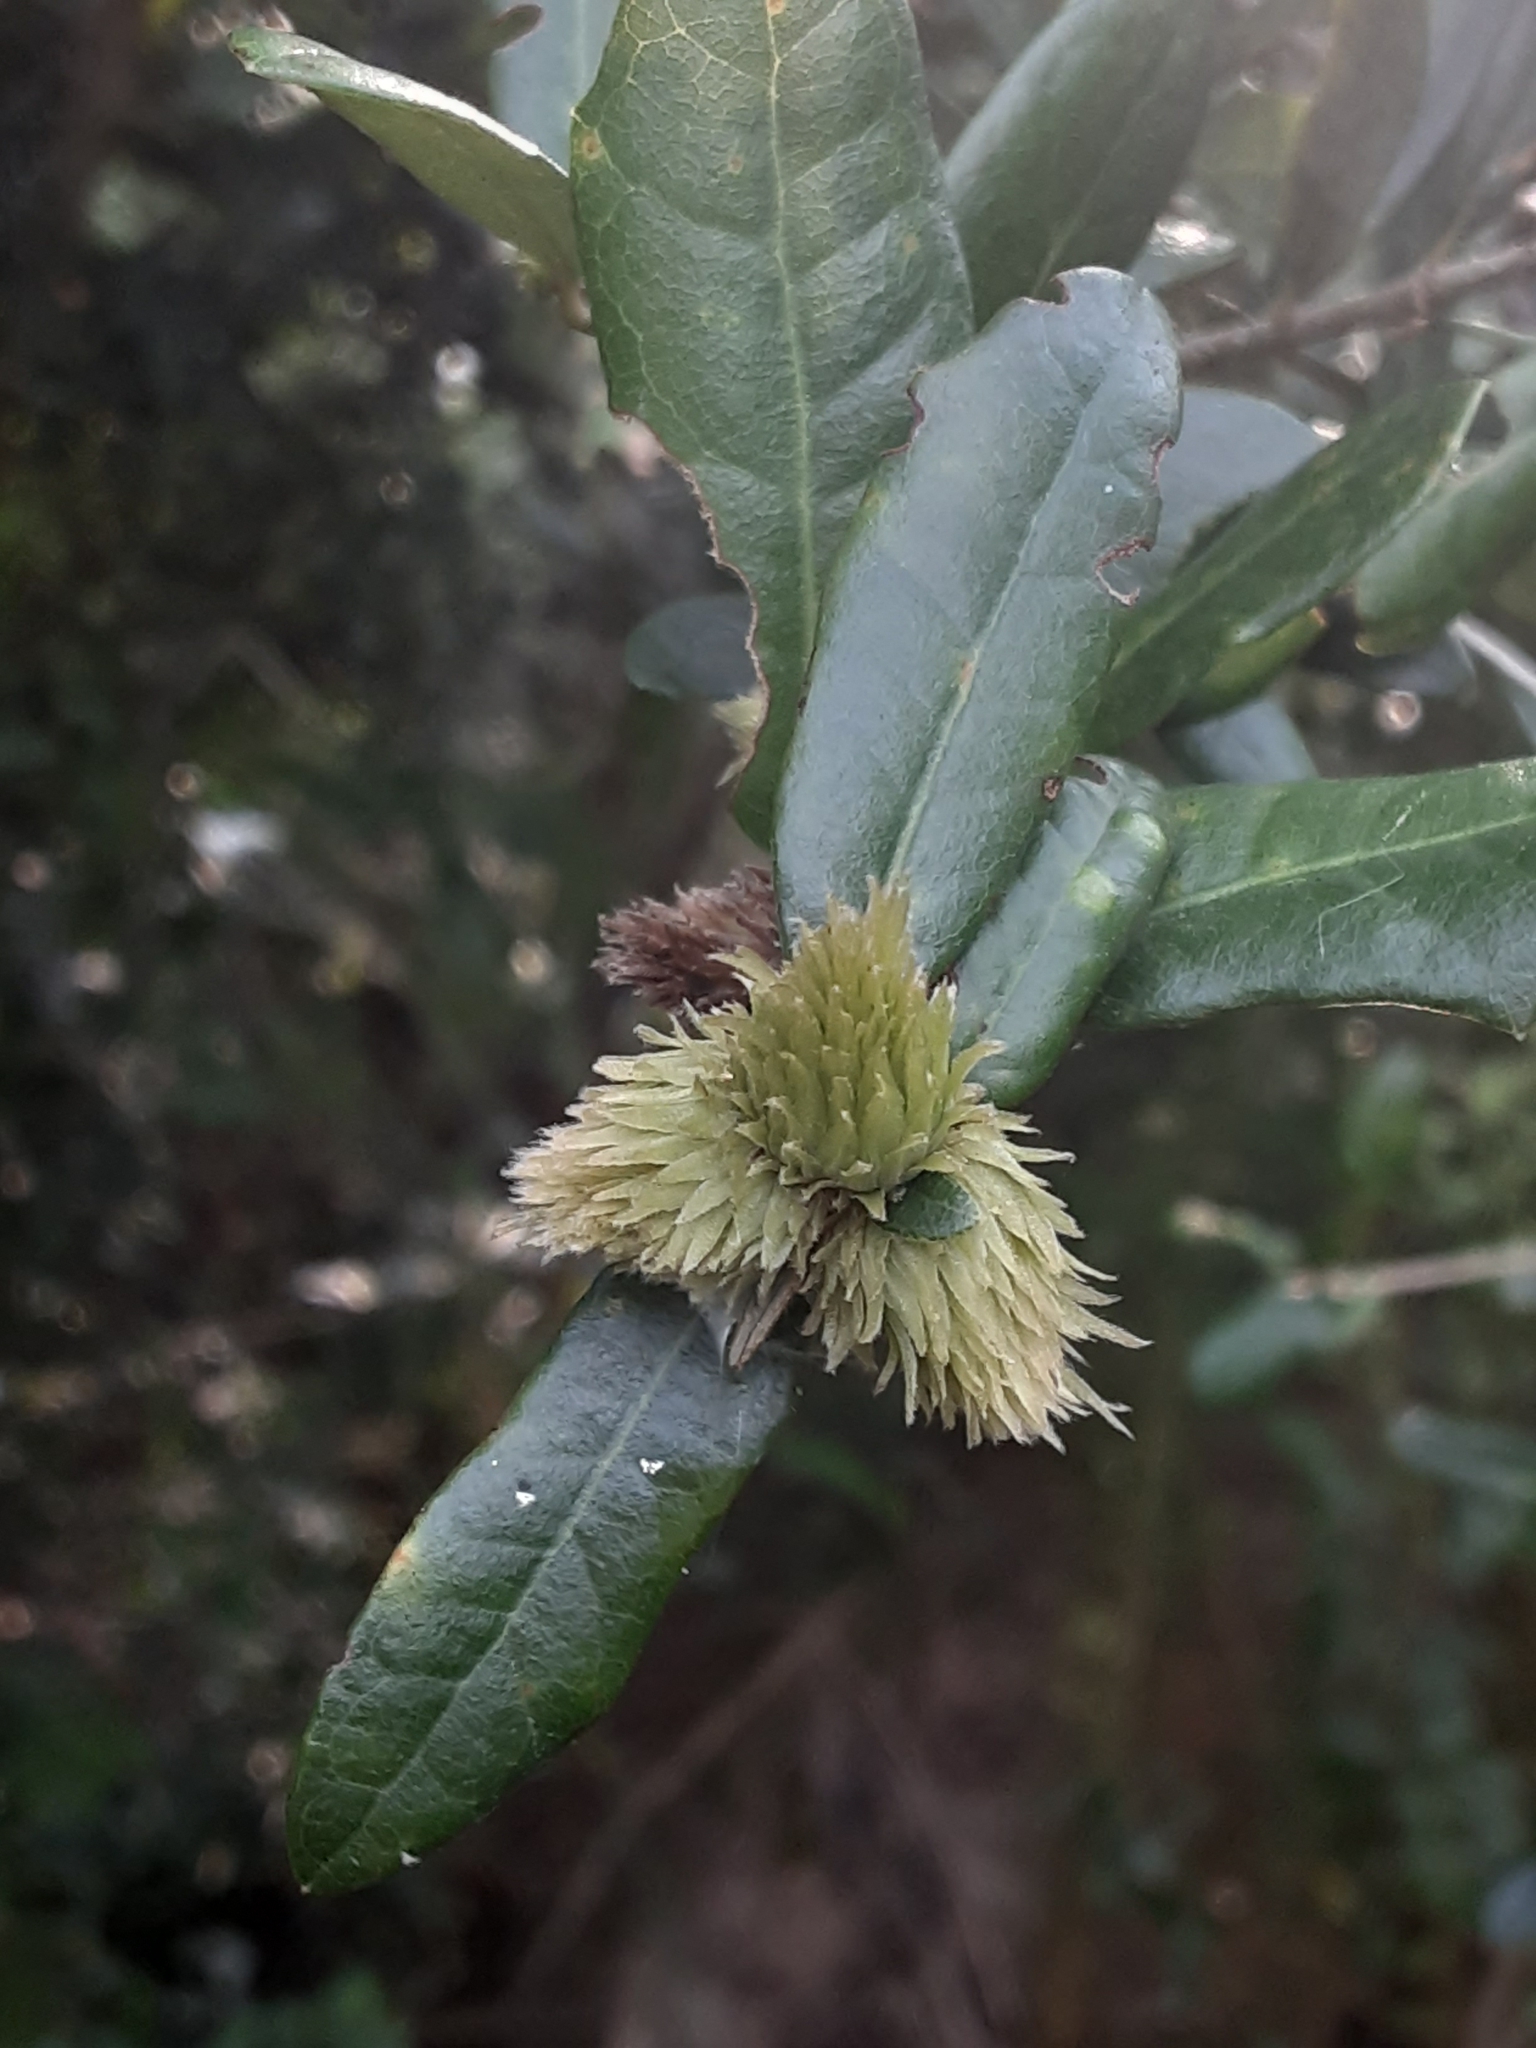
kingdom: Animalia
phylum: Arthropoda
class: Insecta
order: Hymenoptera
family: Cynipidae
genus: Andricus
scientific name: Andricus quercusfoliatus
